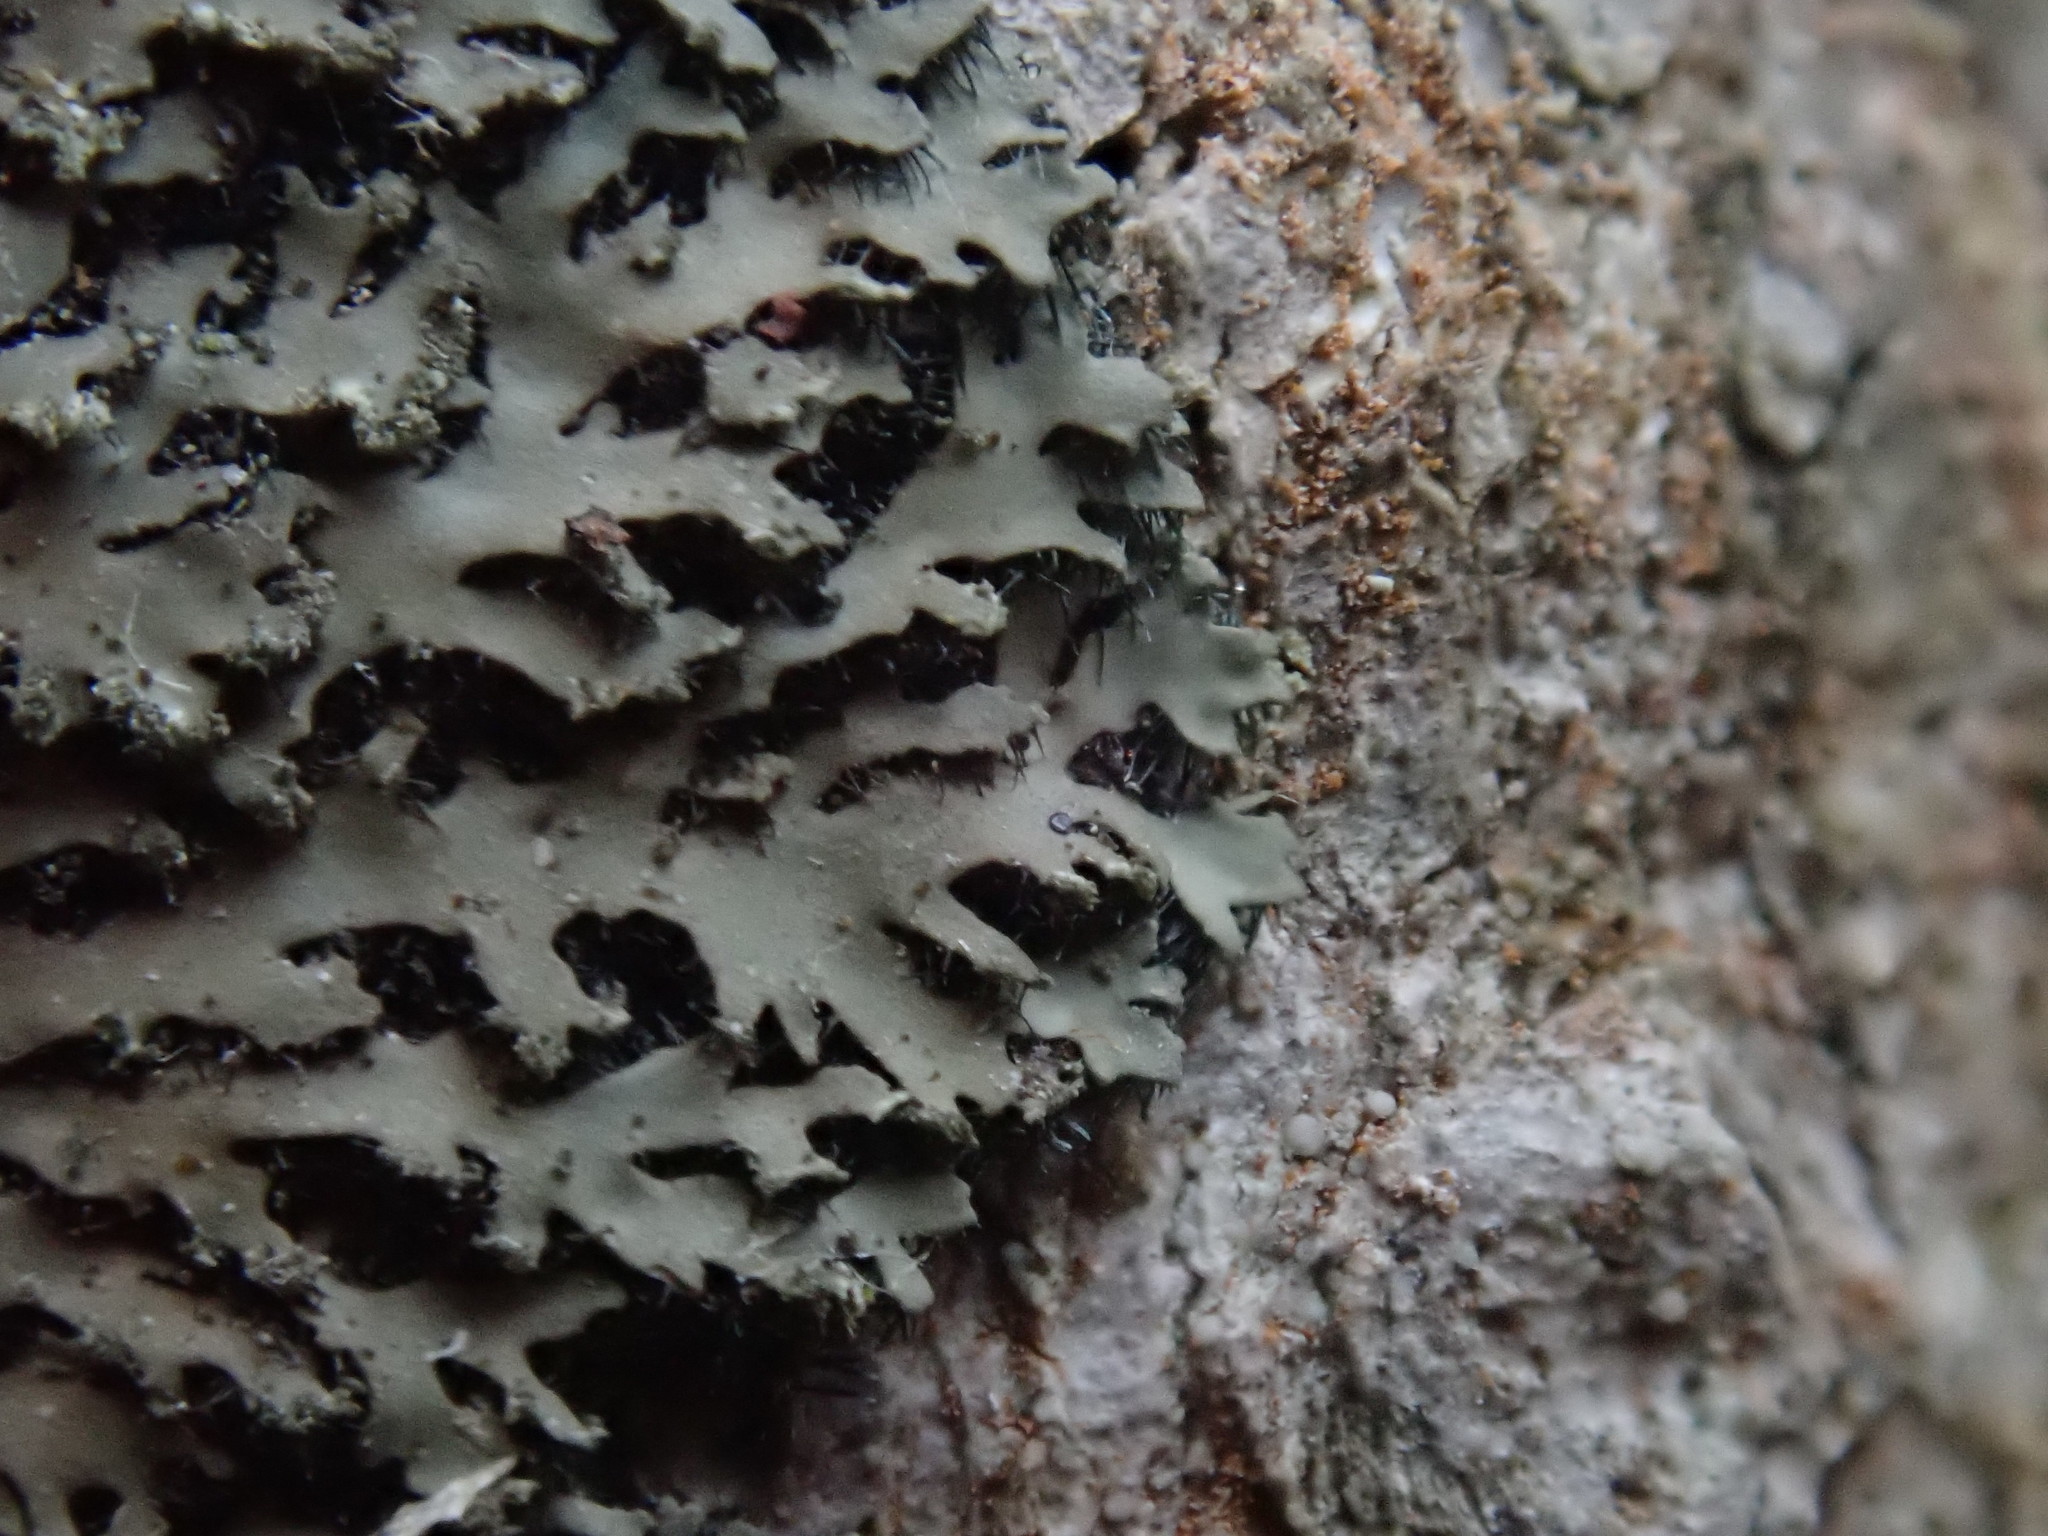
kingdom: Fungi
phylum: Ascomycota
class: Lecanoromycetes
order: Caliciales
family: Physciaceae
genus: Phaeophyscia
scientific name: Phaeophyscia rubropulchra
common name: Orange-cored shadow lichen
